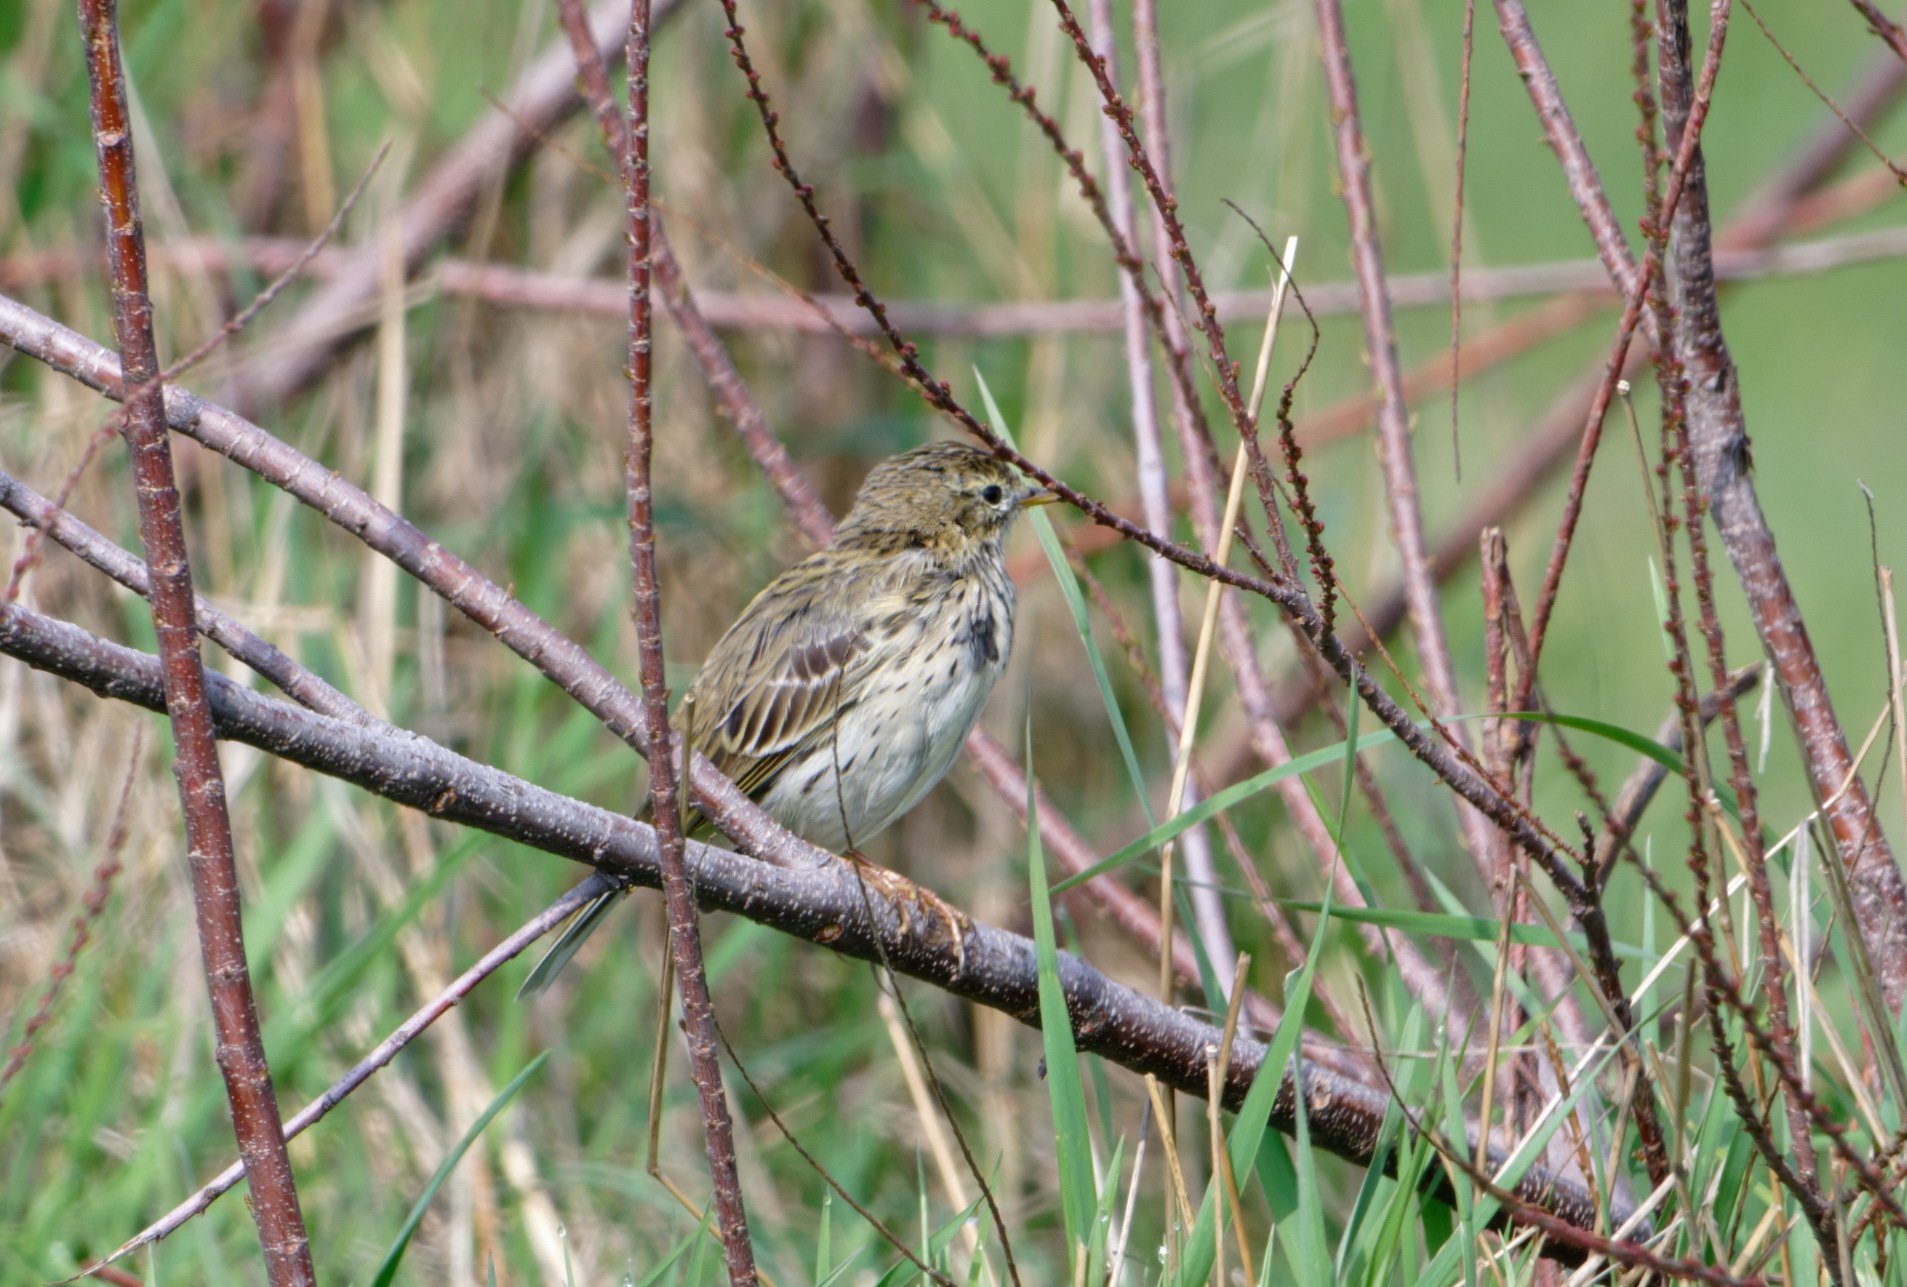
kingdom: Animalia
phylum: Chordata
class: Aves
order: Passeriformes
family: Motacillidae
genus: Anthus
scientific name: Anthus pratensis
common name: Meadow pipit
